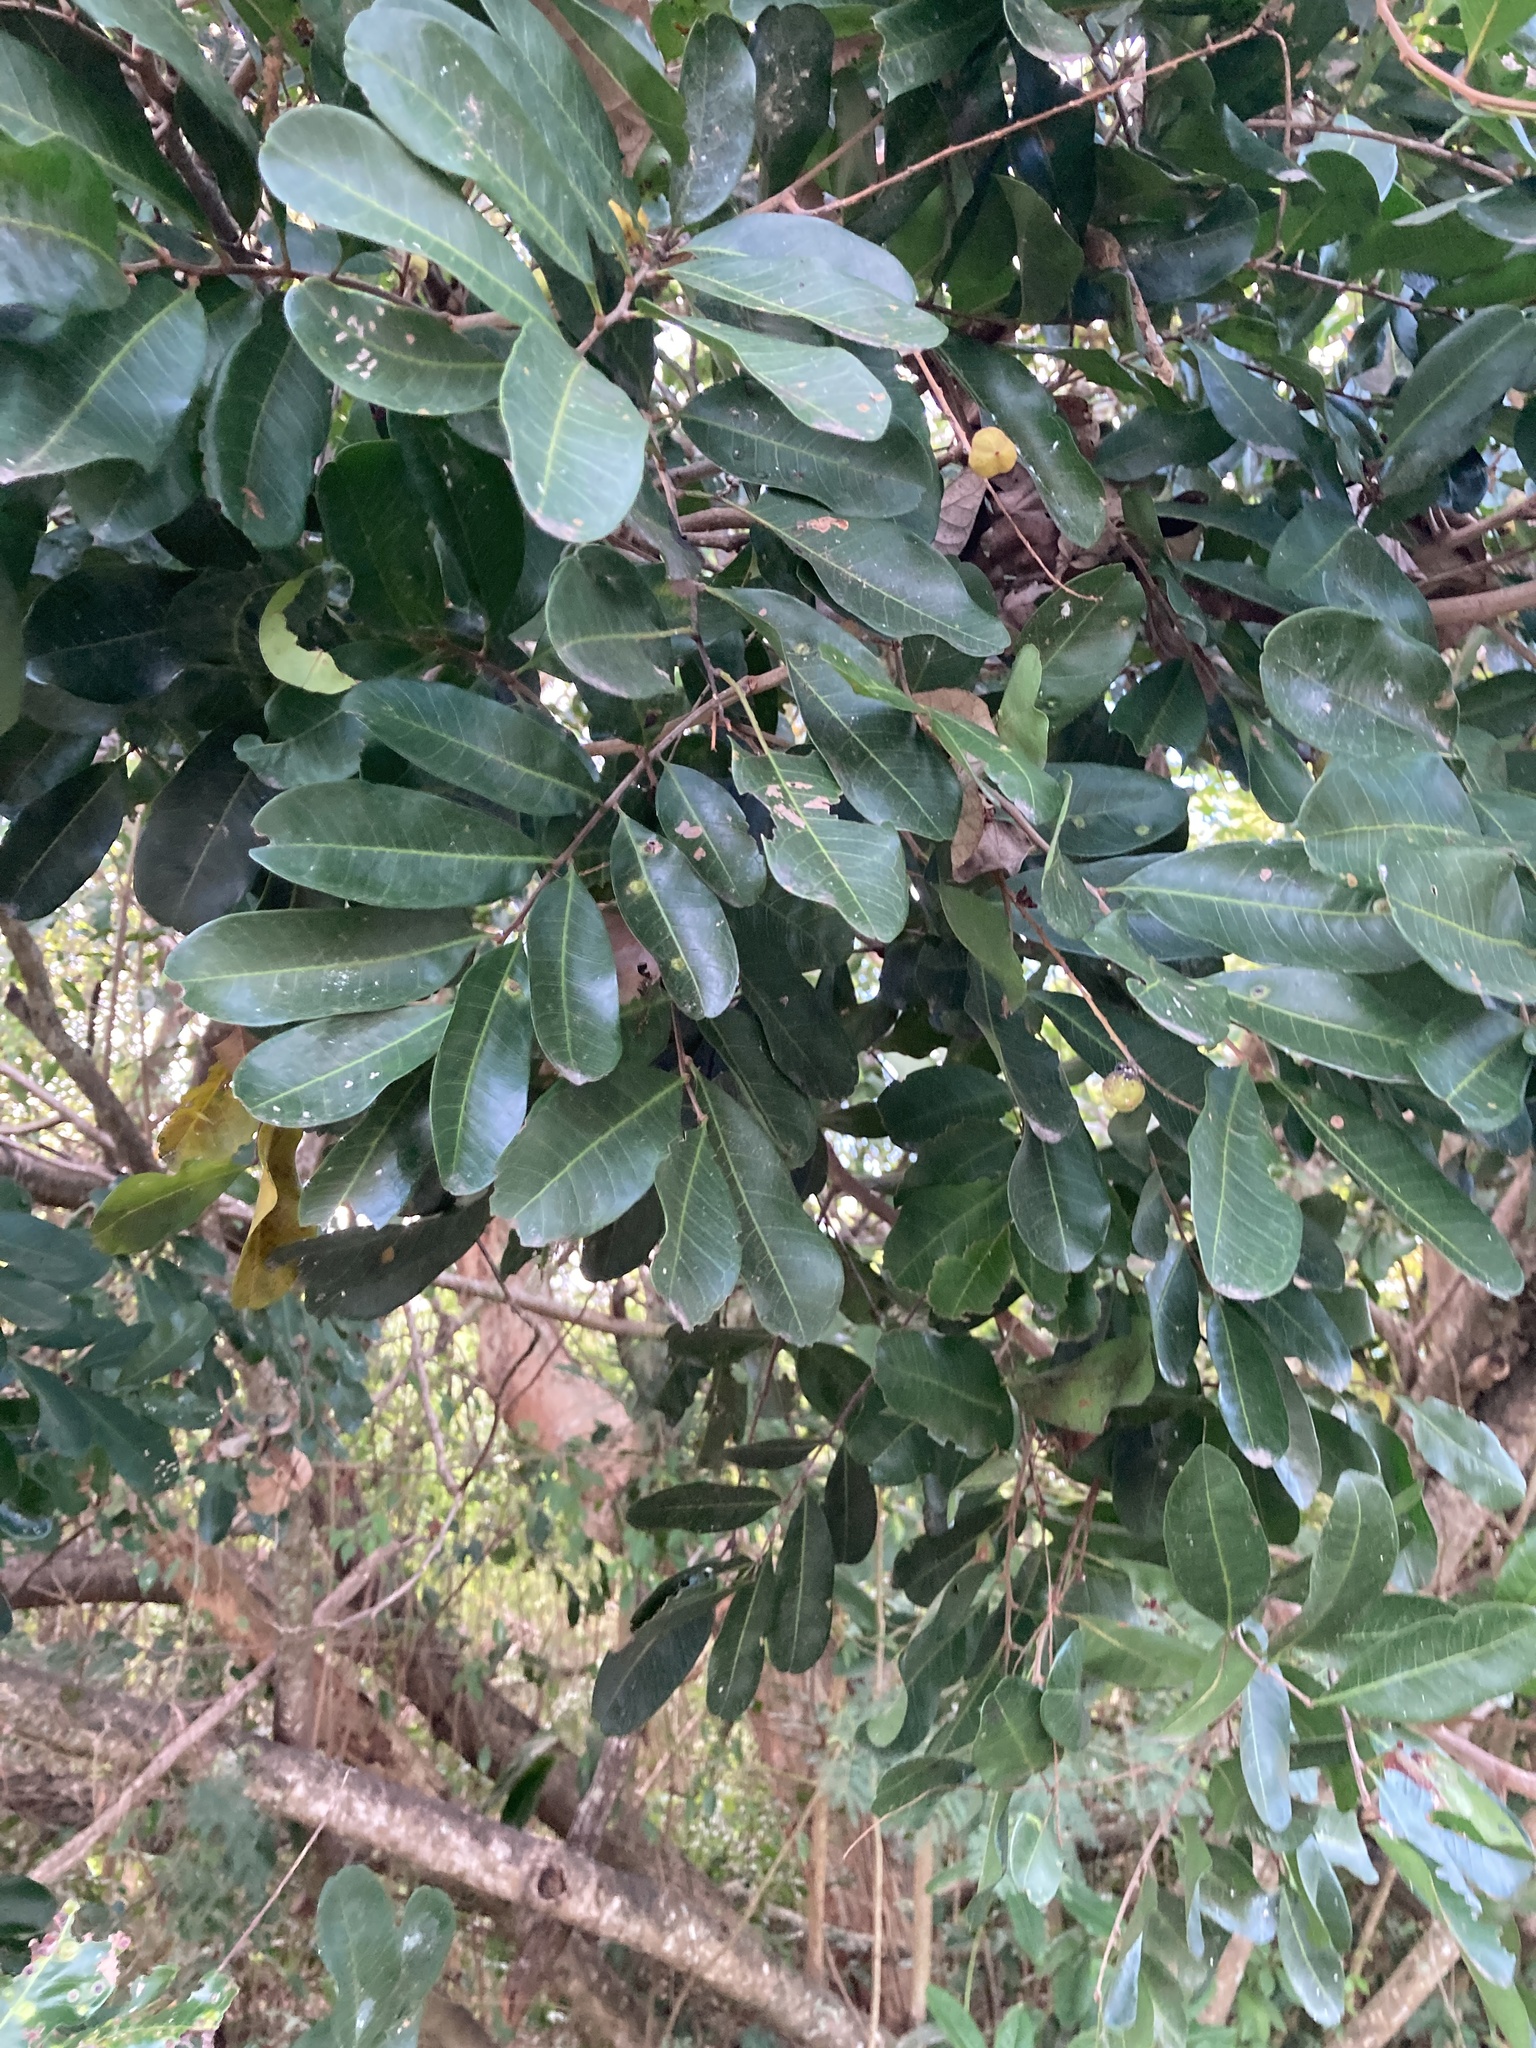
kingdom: Plantae
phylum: Tracheophyta
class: Magnoliopsida
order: Sapindales
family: Sapindaceae
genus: Cupaniopsis
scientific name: Cupaniopsis anacardioides
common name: Carrotwood
